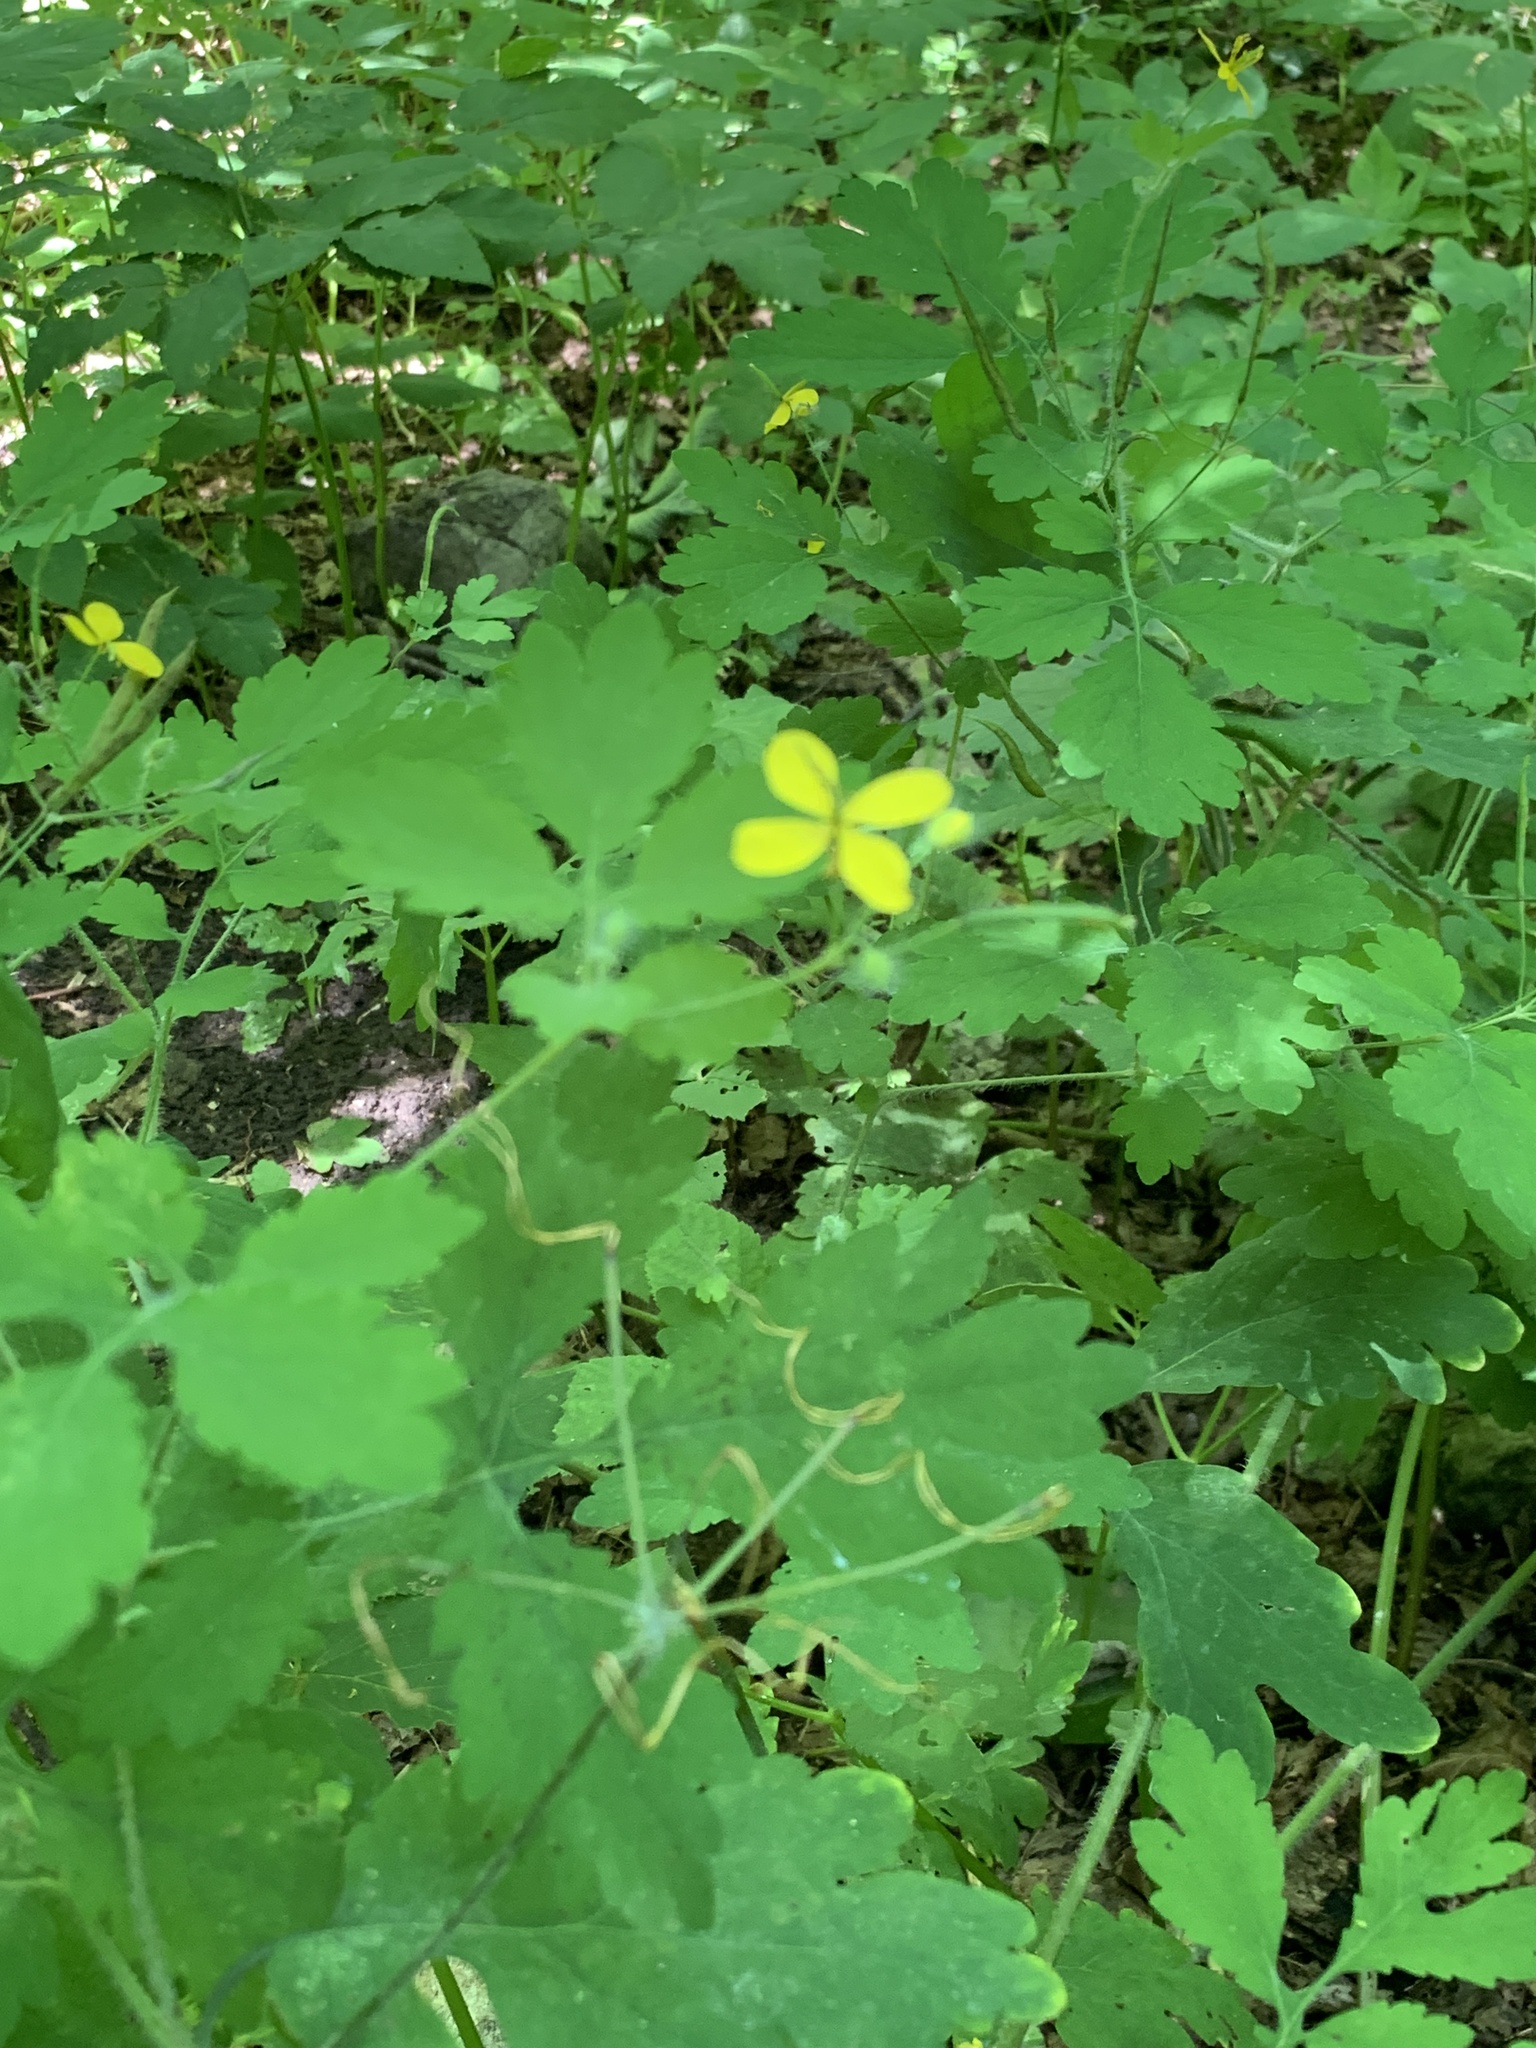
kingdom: Plantae
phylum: Tracheophyta
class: Magnoliopsida
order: Ranunculales
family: Papaveraceae
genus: Chelidonium
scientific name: Chelidonium majus
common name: Greater celandine
